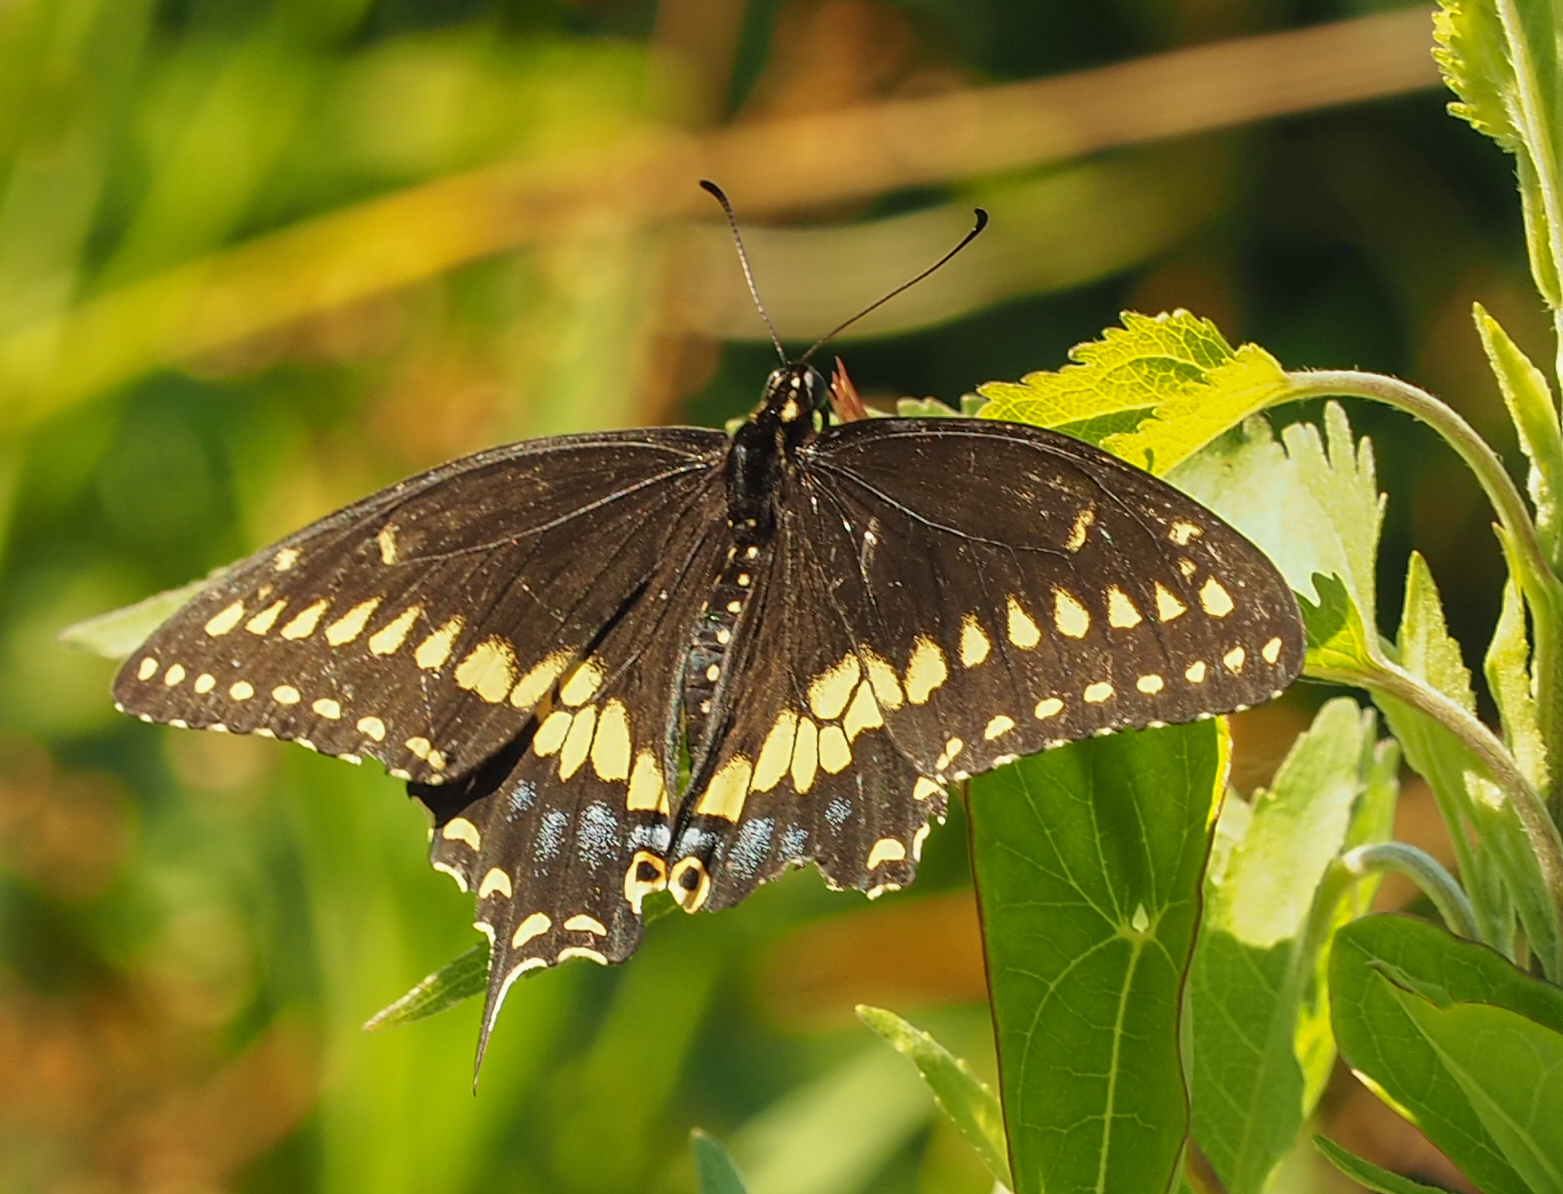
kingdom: Animalia
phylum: Arthropoda
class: Insecta
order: Lepidoptera
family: Papilionidae
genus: Papilio
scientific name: Papilio polyxenes
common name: Black swallowtail
